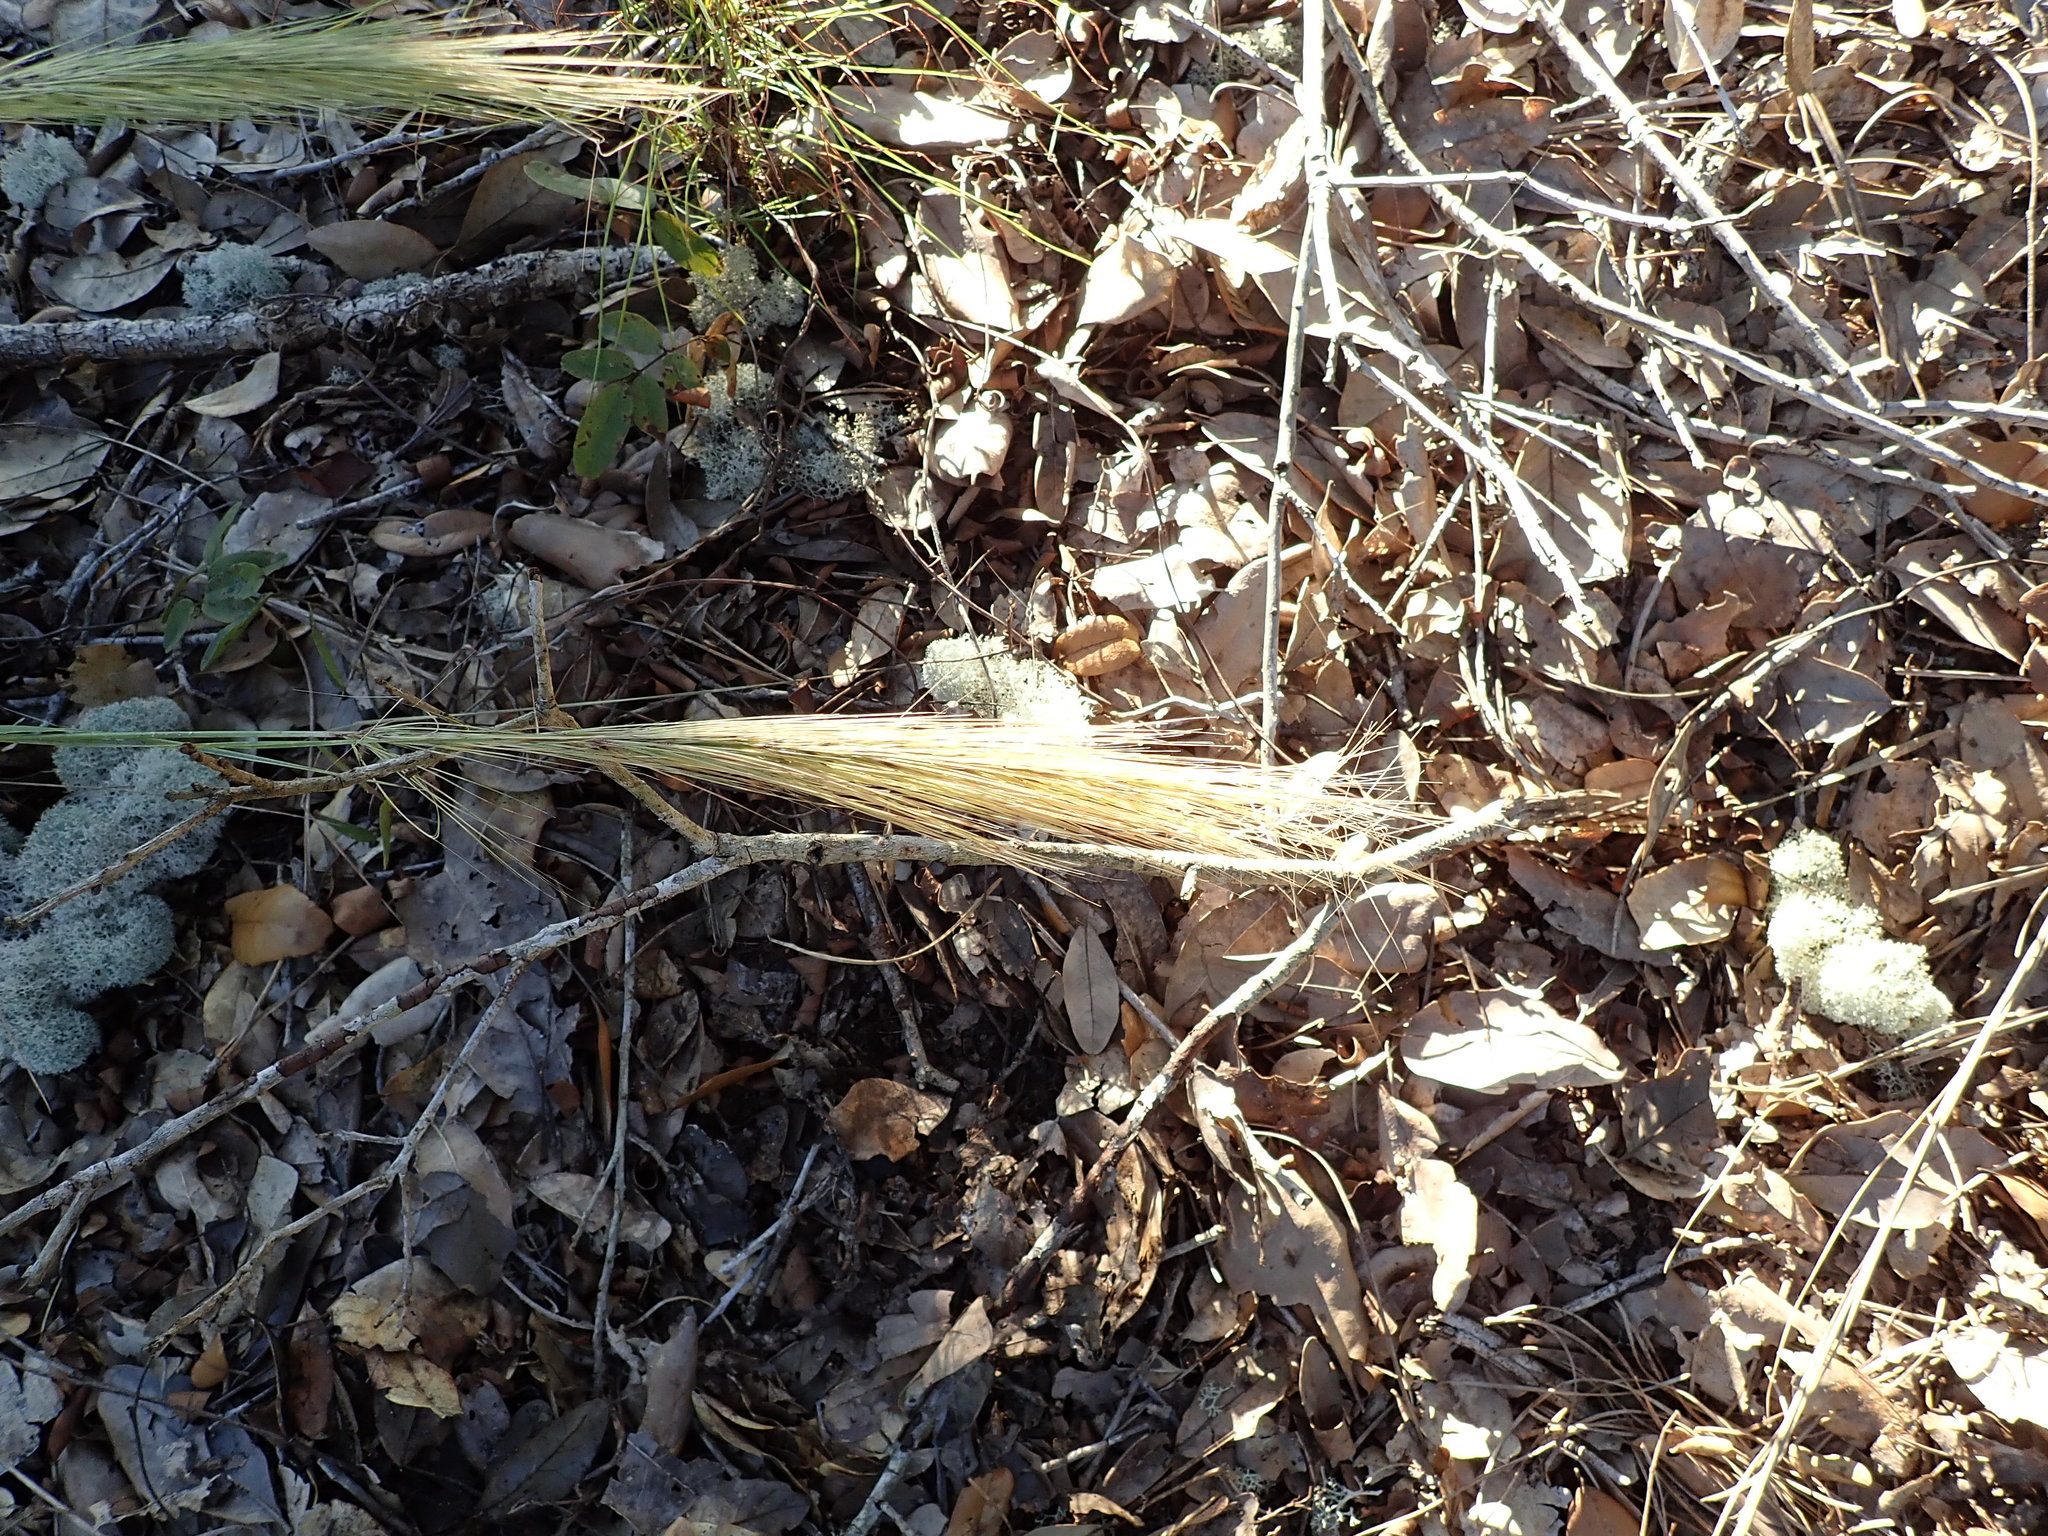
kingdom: Plantae
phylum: Tracheophyta
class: Liliopsida
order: Poales
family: Poaceae
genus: Aristida
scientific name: Aristida spiciformis
